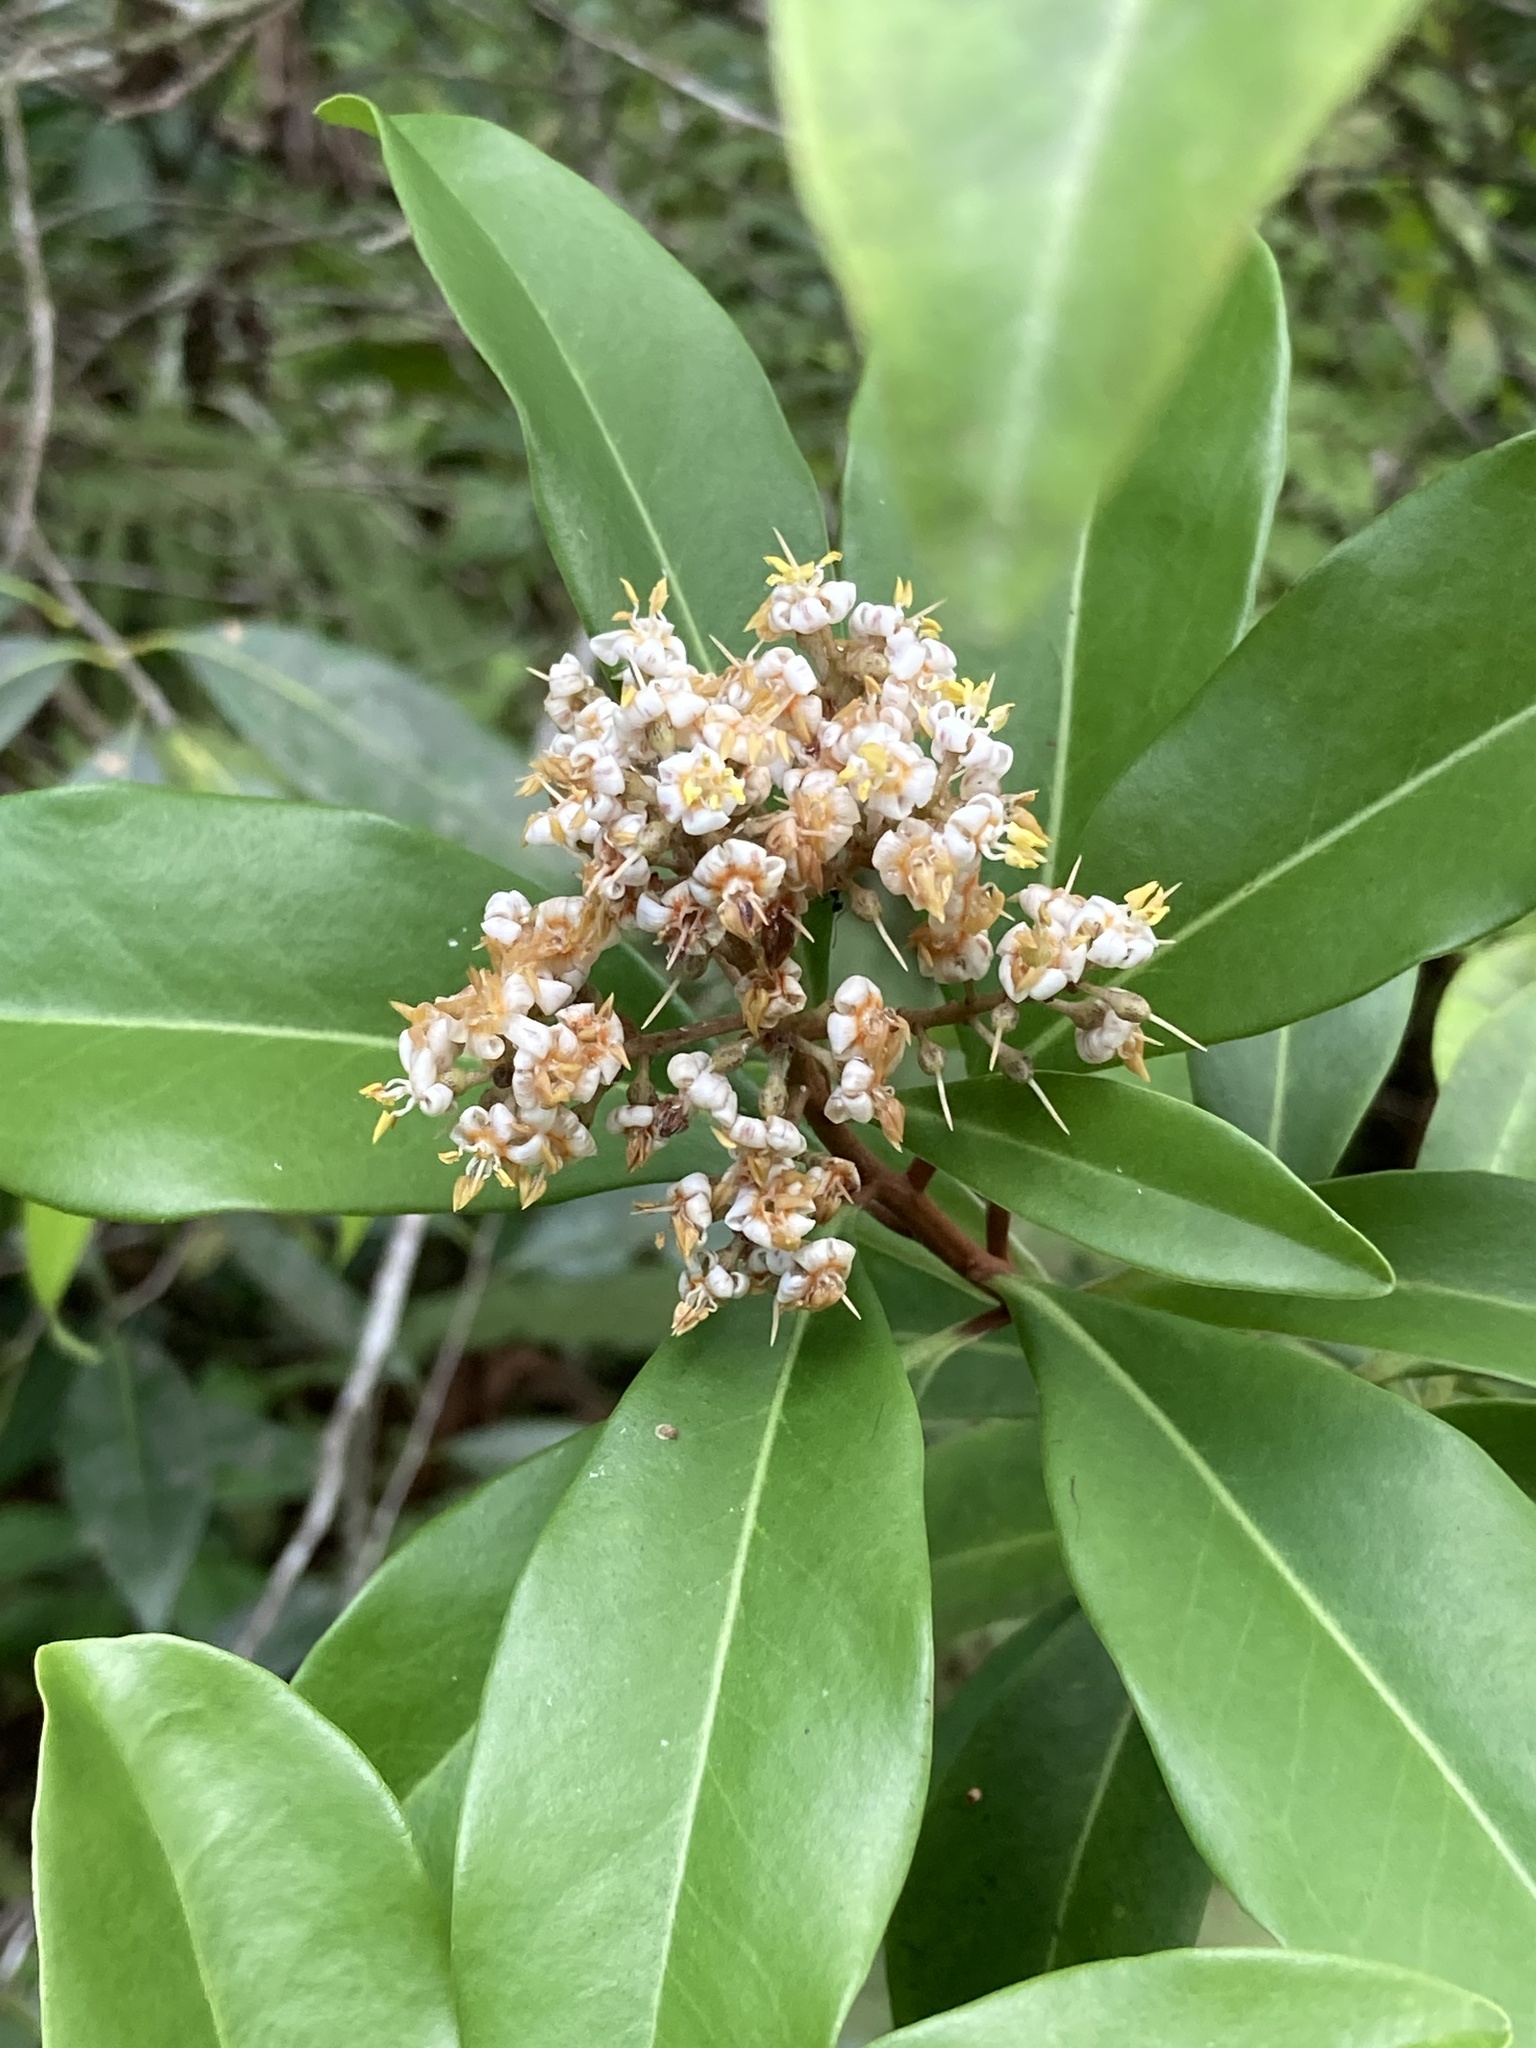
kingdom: Plantae
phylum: Tracheophyta
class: Magnoliopsida
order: Ericales
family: Primulaceae
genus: Ardisia
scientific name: Ardisia escallonioides
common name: Island marlberry
